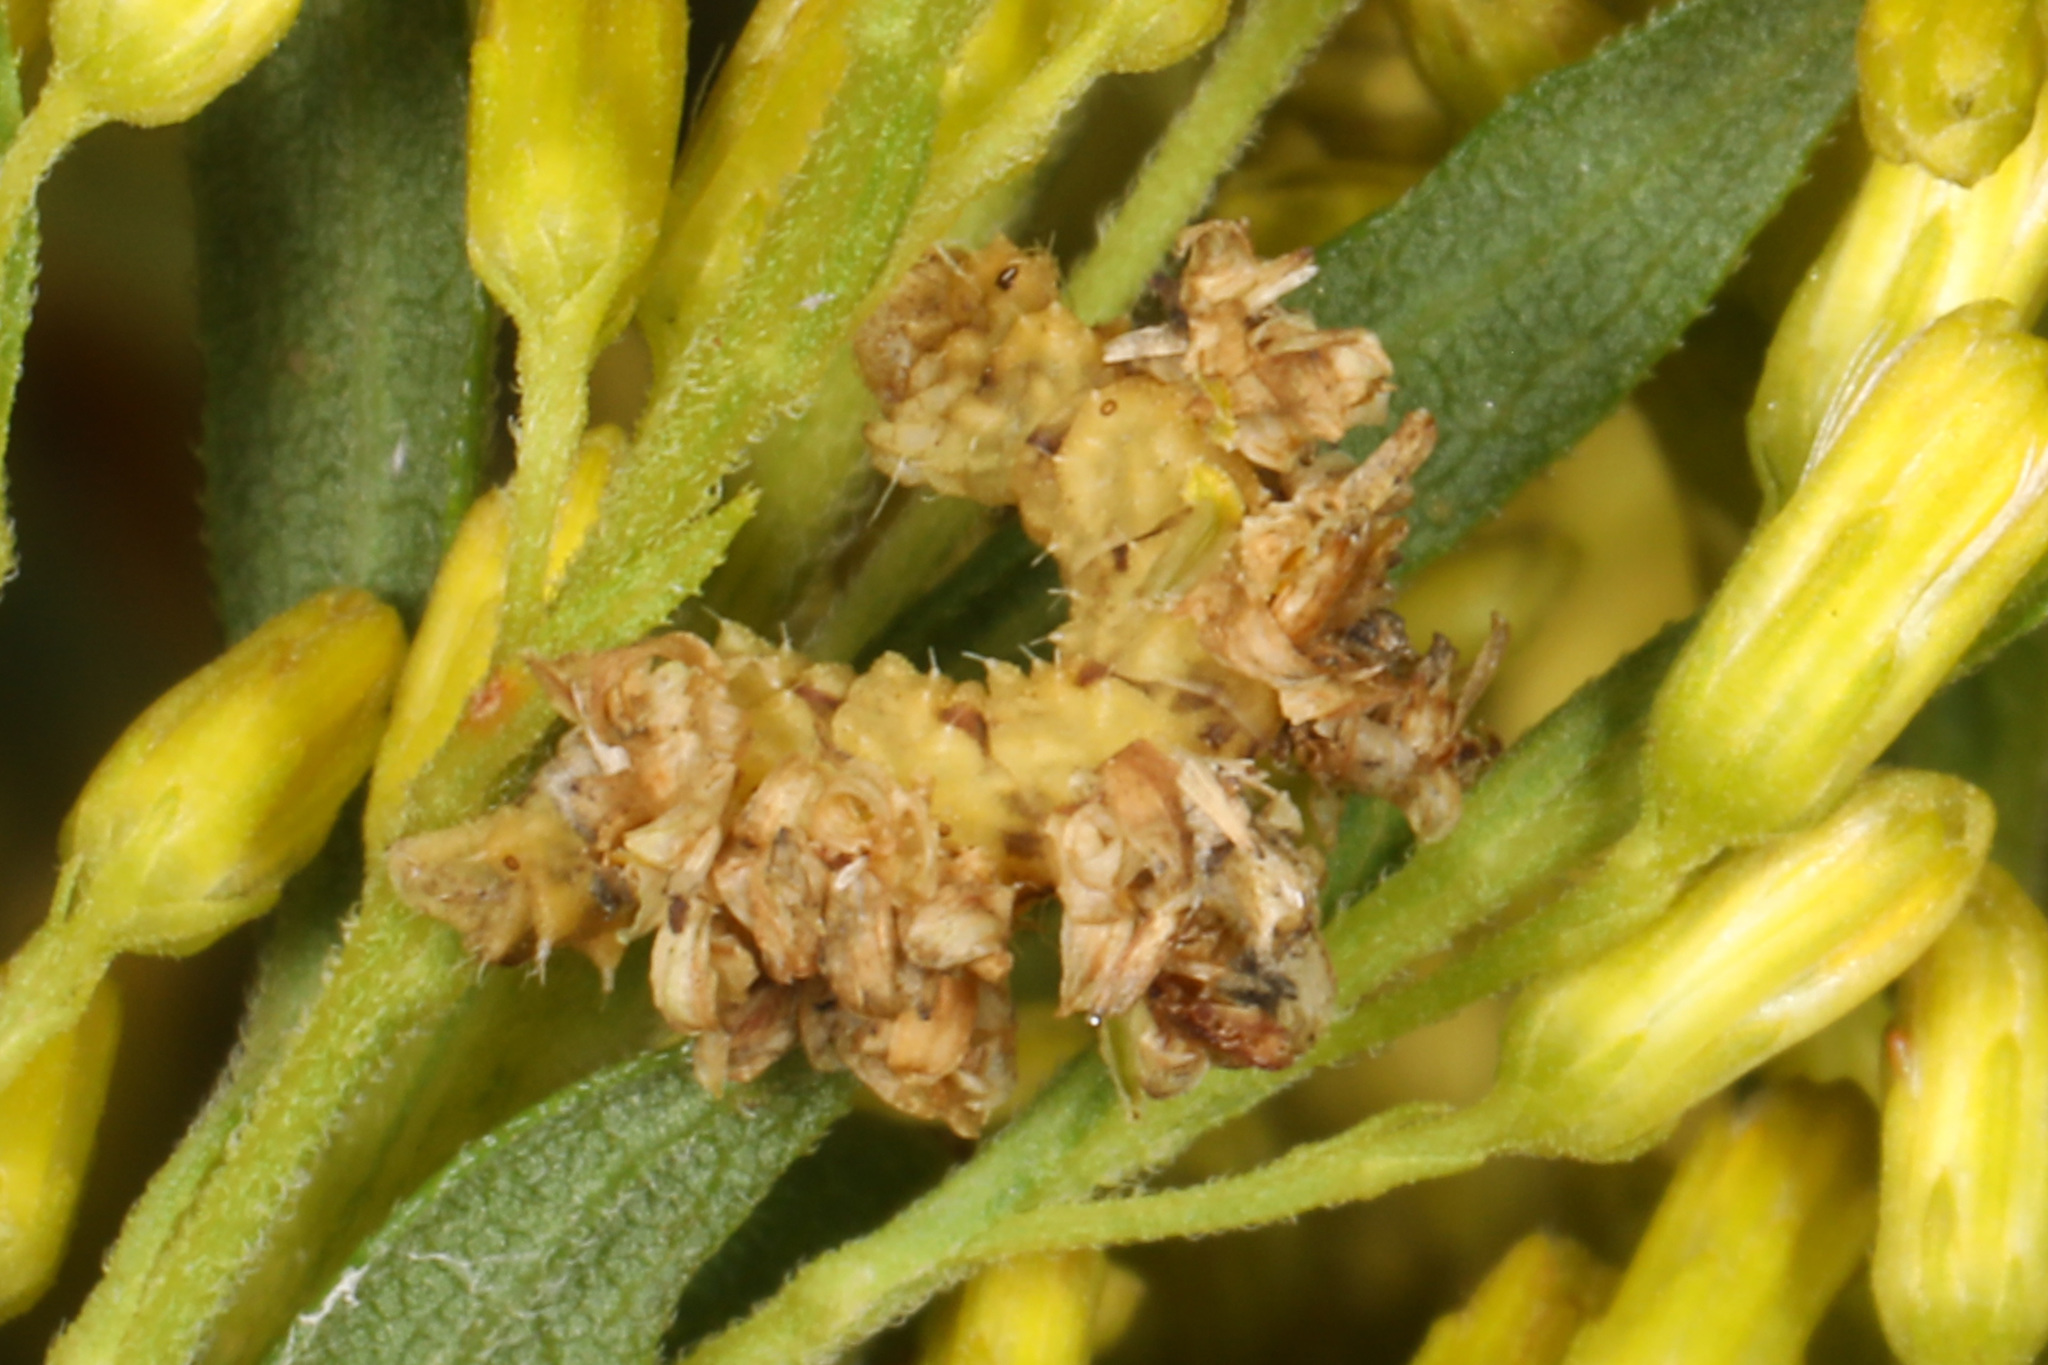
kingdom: Animalia
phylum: Arthropoda
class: Insecta
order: Lepidoptera
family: Geometridae
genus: Synchlora
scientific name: Synchlora aerata
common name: Wavy-lined emerald
